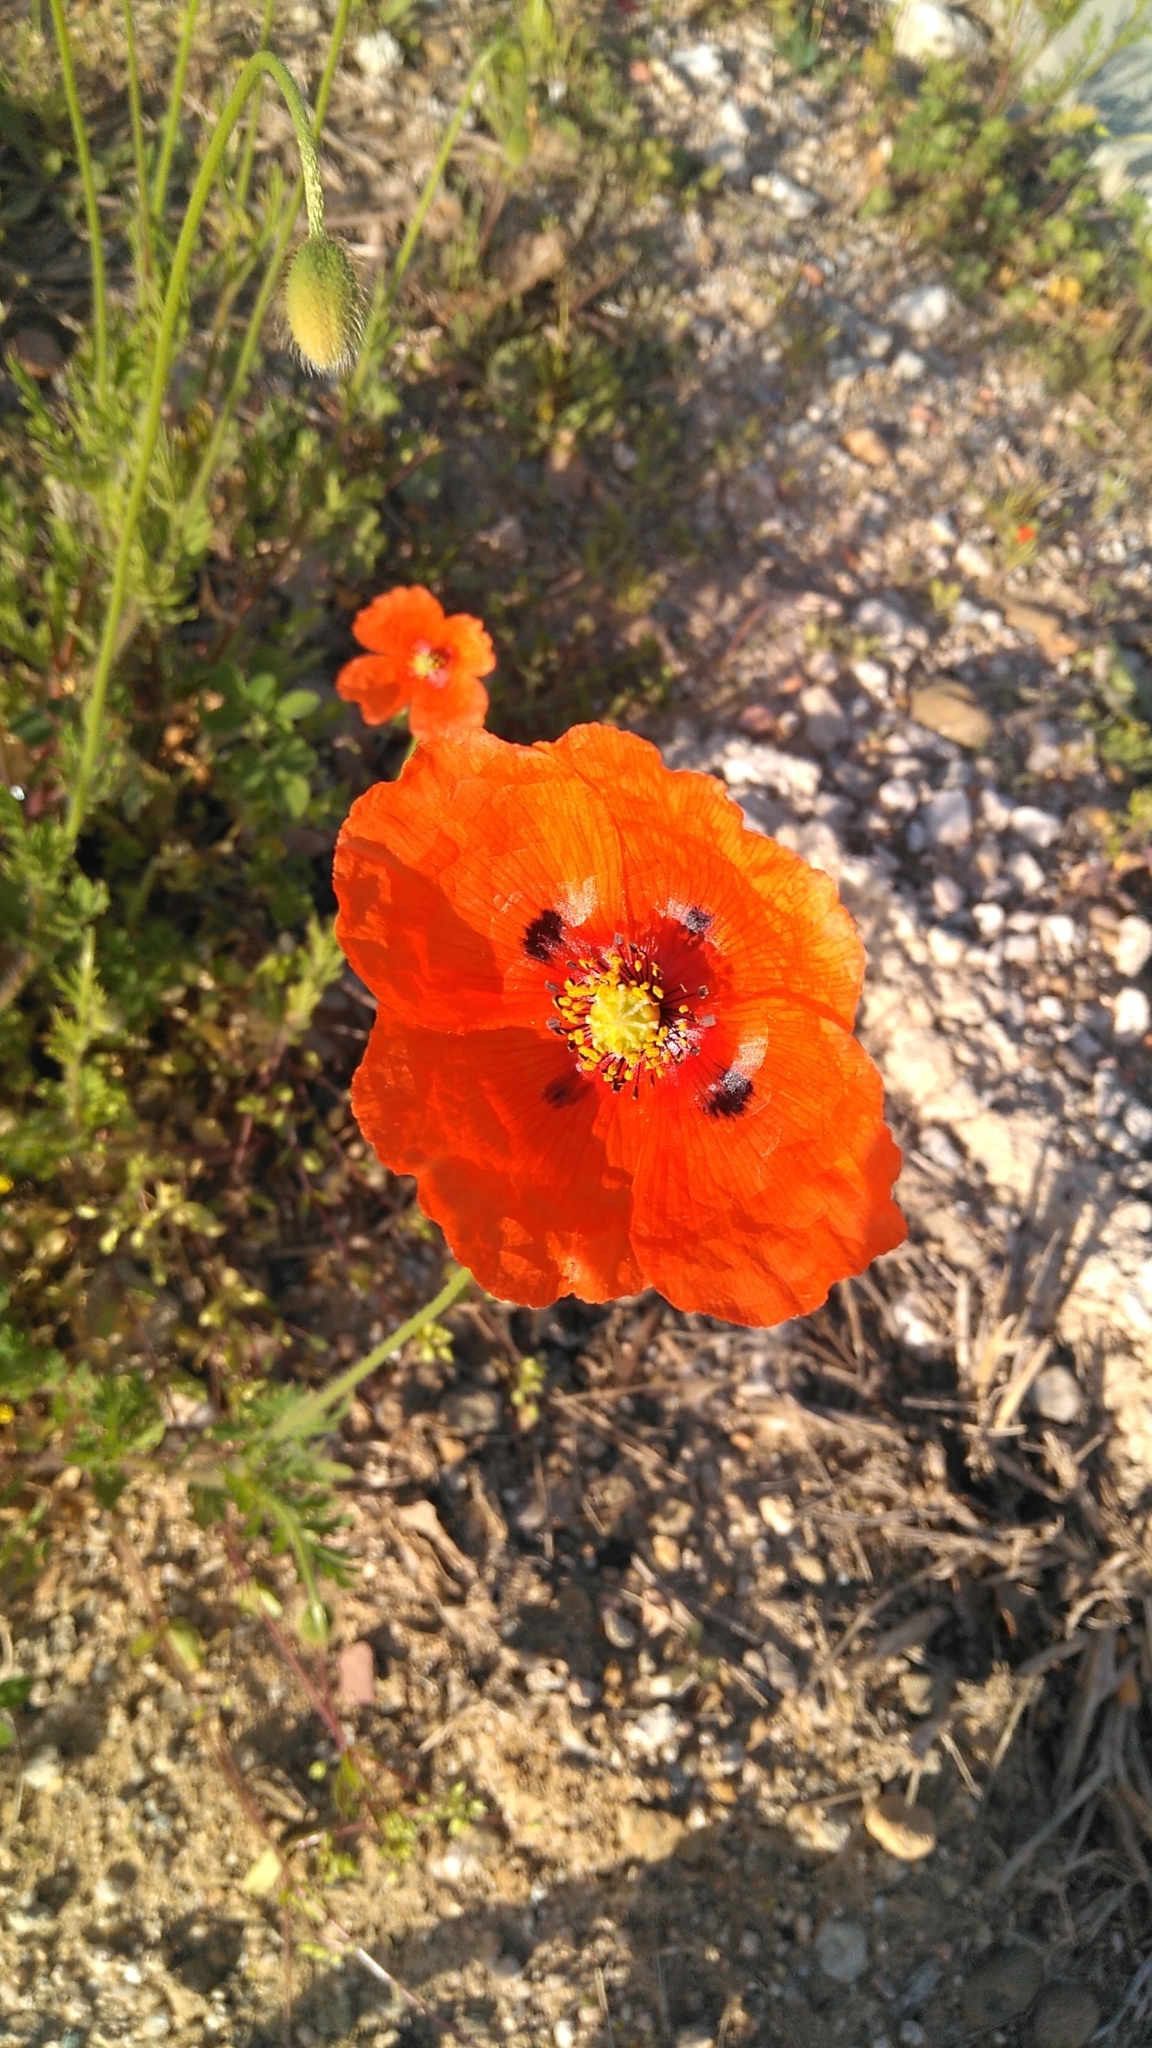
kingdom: Plantae
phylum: Tracheophyta
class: Magnoliopsida
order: Ranunculales
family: Papaveraceae
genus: Papaver
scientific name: Papaver dubium
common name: Long-headed poppy
